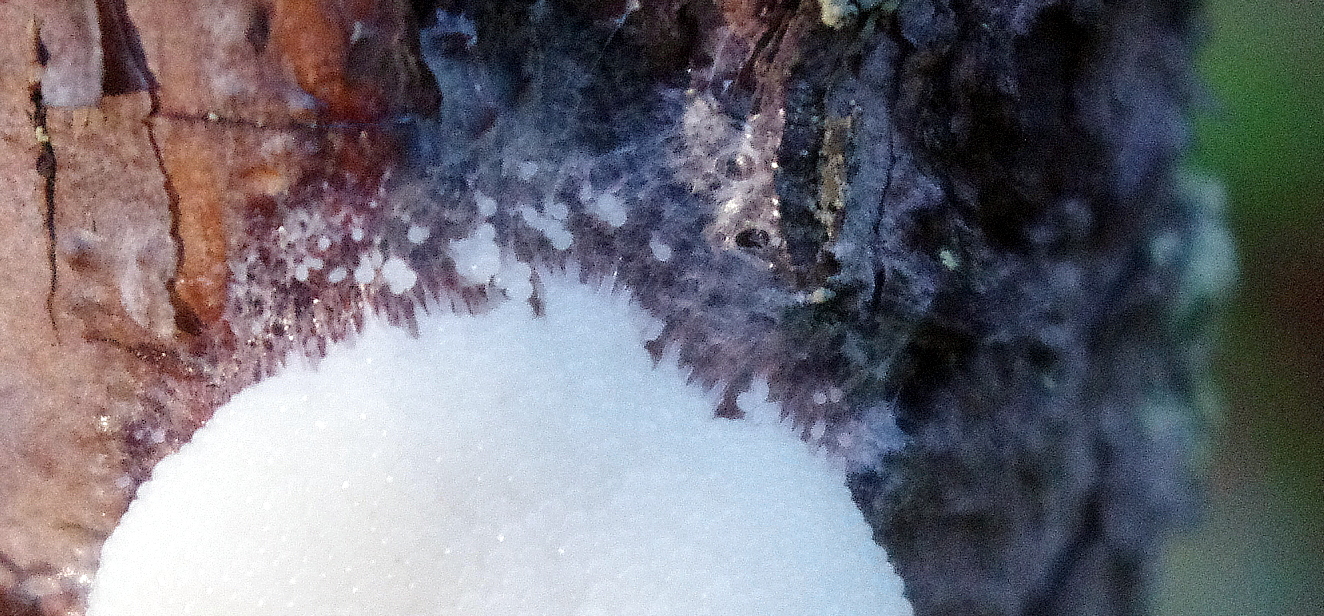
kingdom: Protozoa
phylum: Mycetozoa
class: Myxomycetes
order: Stemonitidales
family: Stemonitidaceae
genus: Symphytocarpus
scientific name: Symphytocarpus
